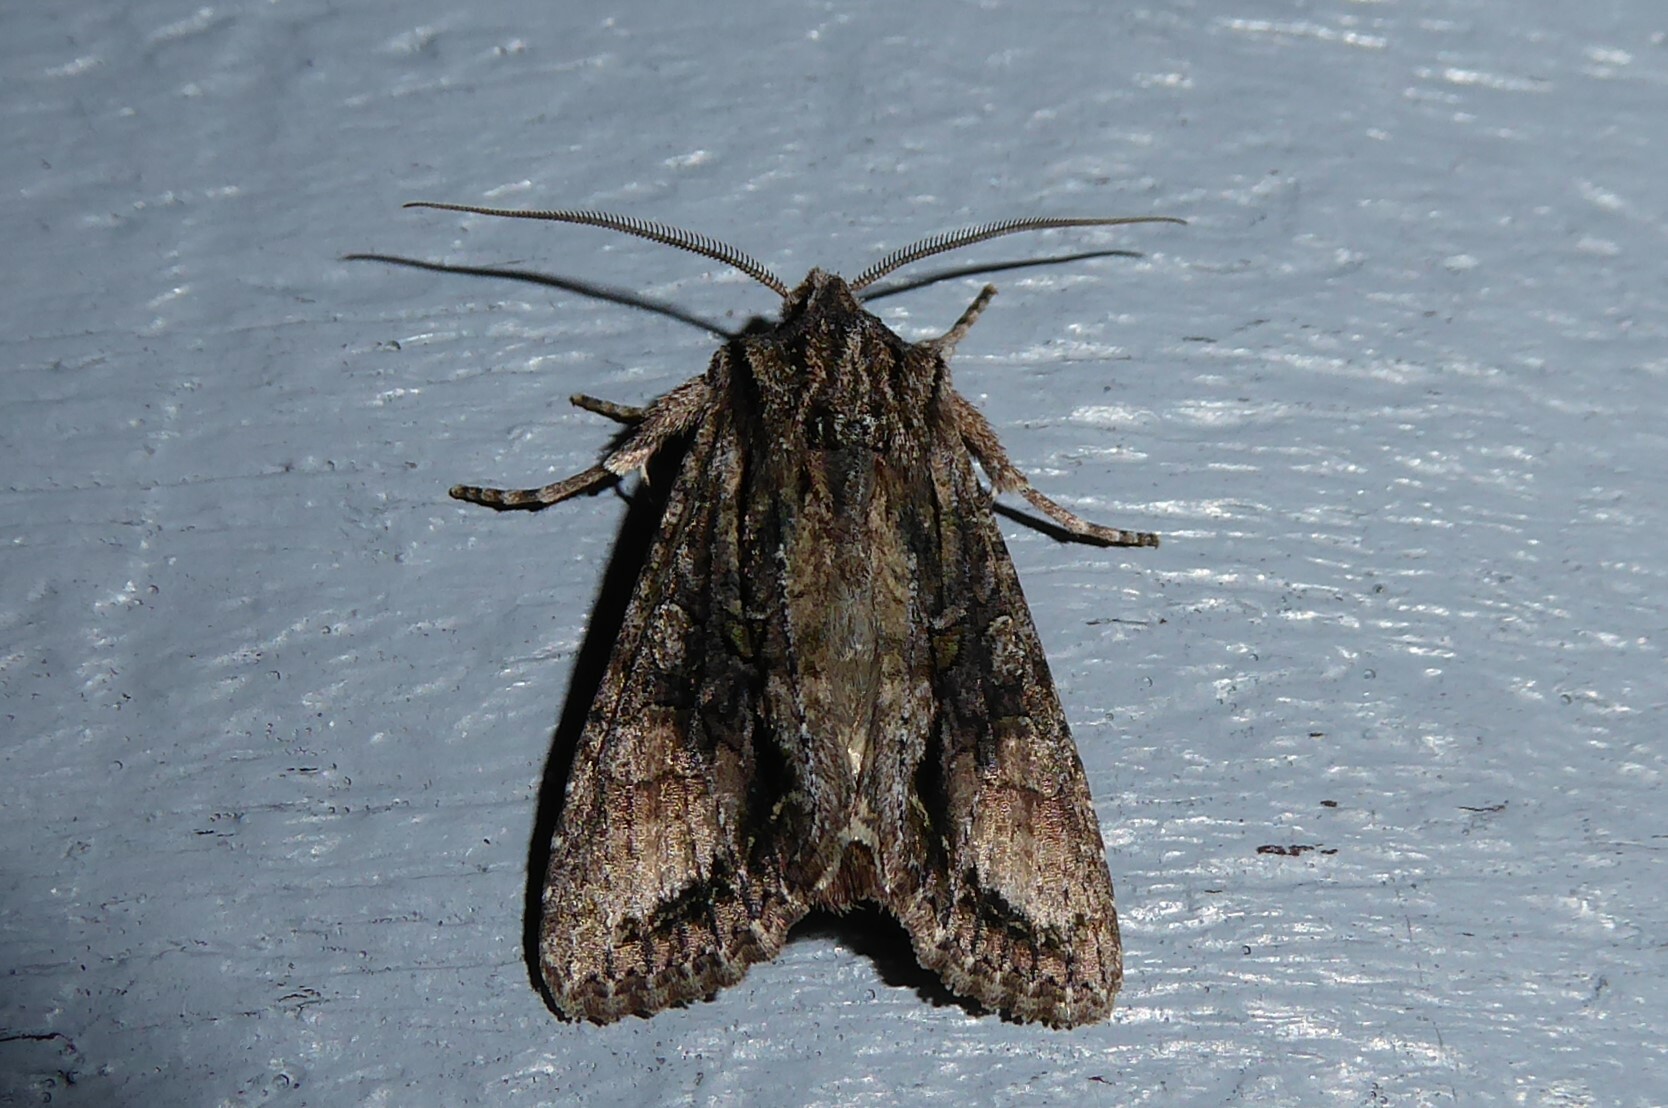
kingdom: Animalia
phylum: Arthropoda
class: Insecta
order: Lepidoptera
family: Noctuidae
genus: Ichneutica
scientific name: Ichneutica mutans
